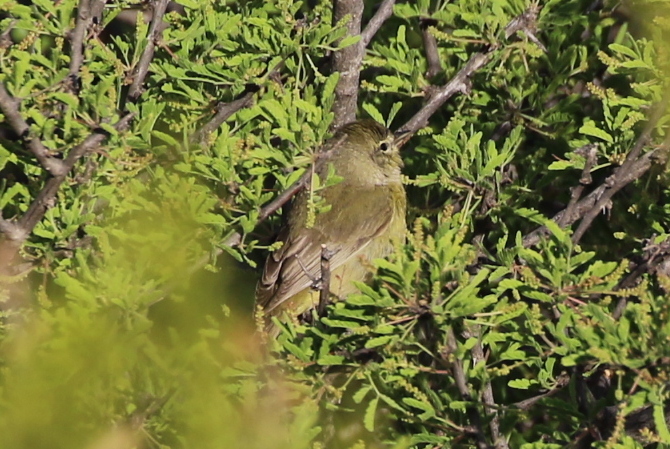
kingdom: Animalia
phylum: Chordata
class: Aves
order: Passeriformes
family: Parulidae
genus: Leiothlypis
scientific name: Leiothlypis celata
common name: Orange-crowned warbler
